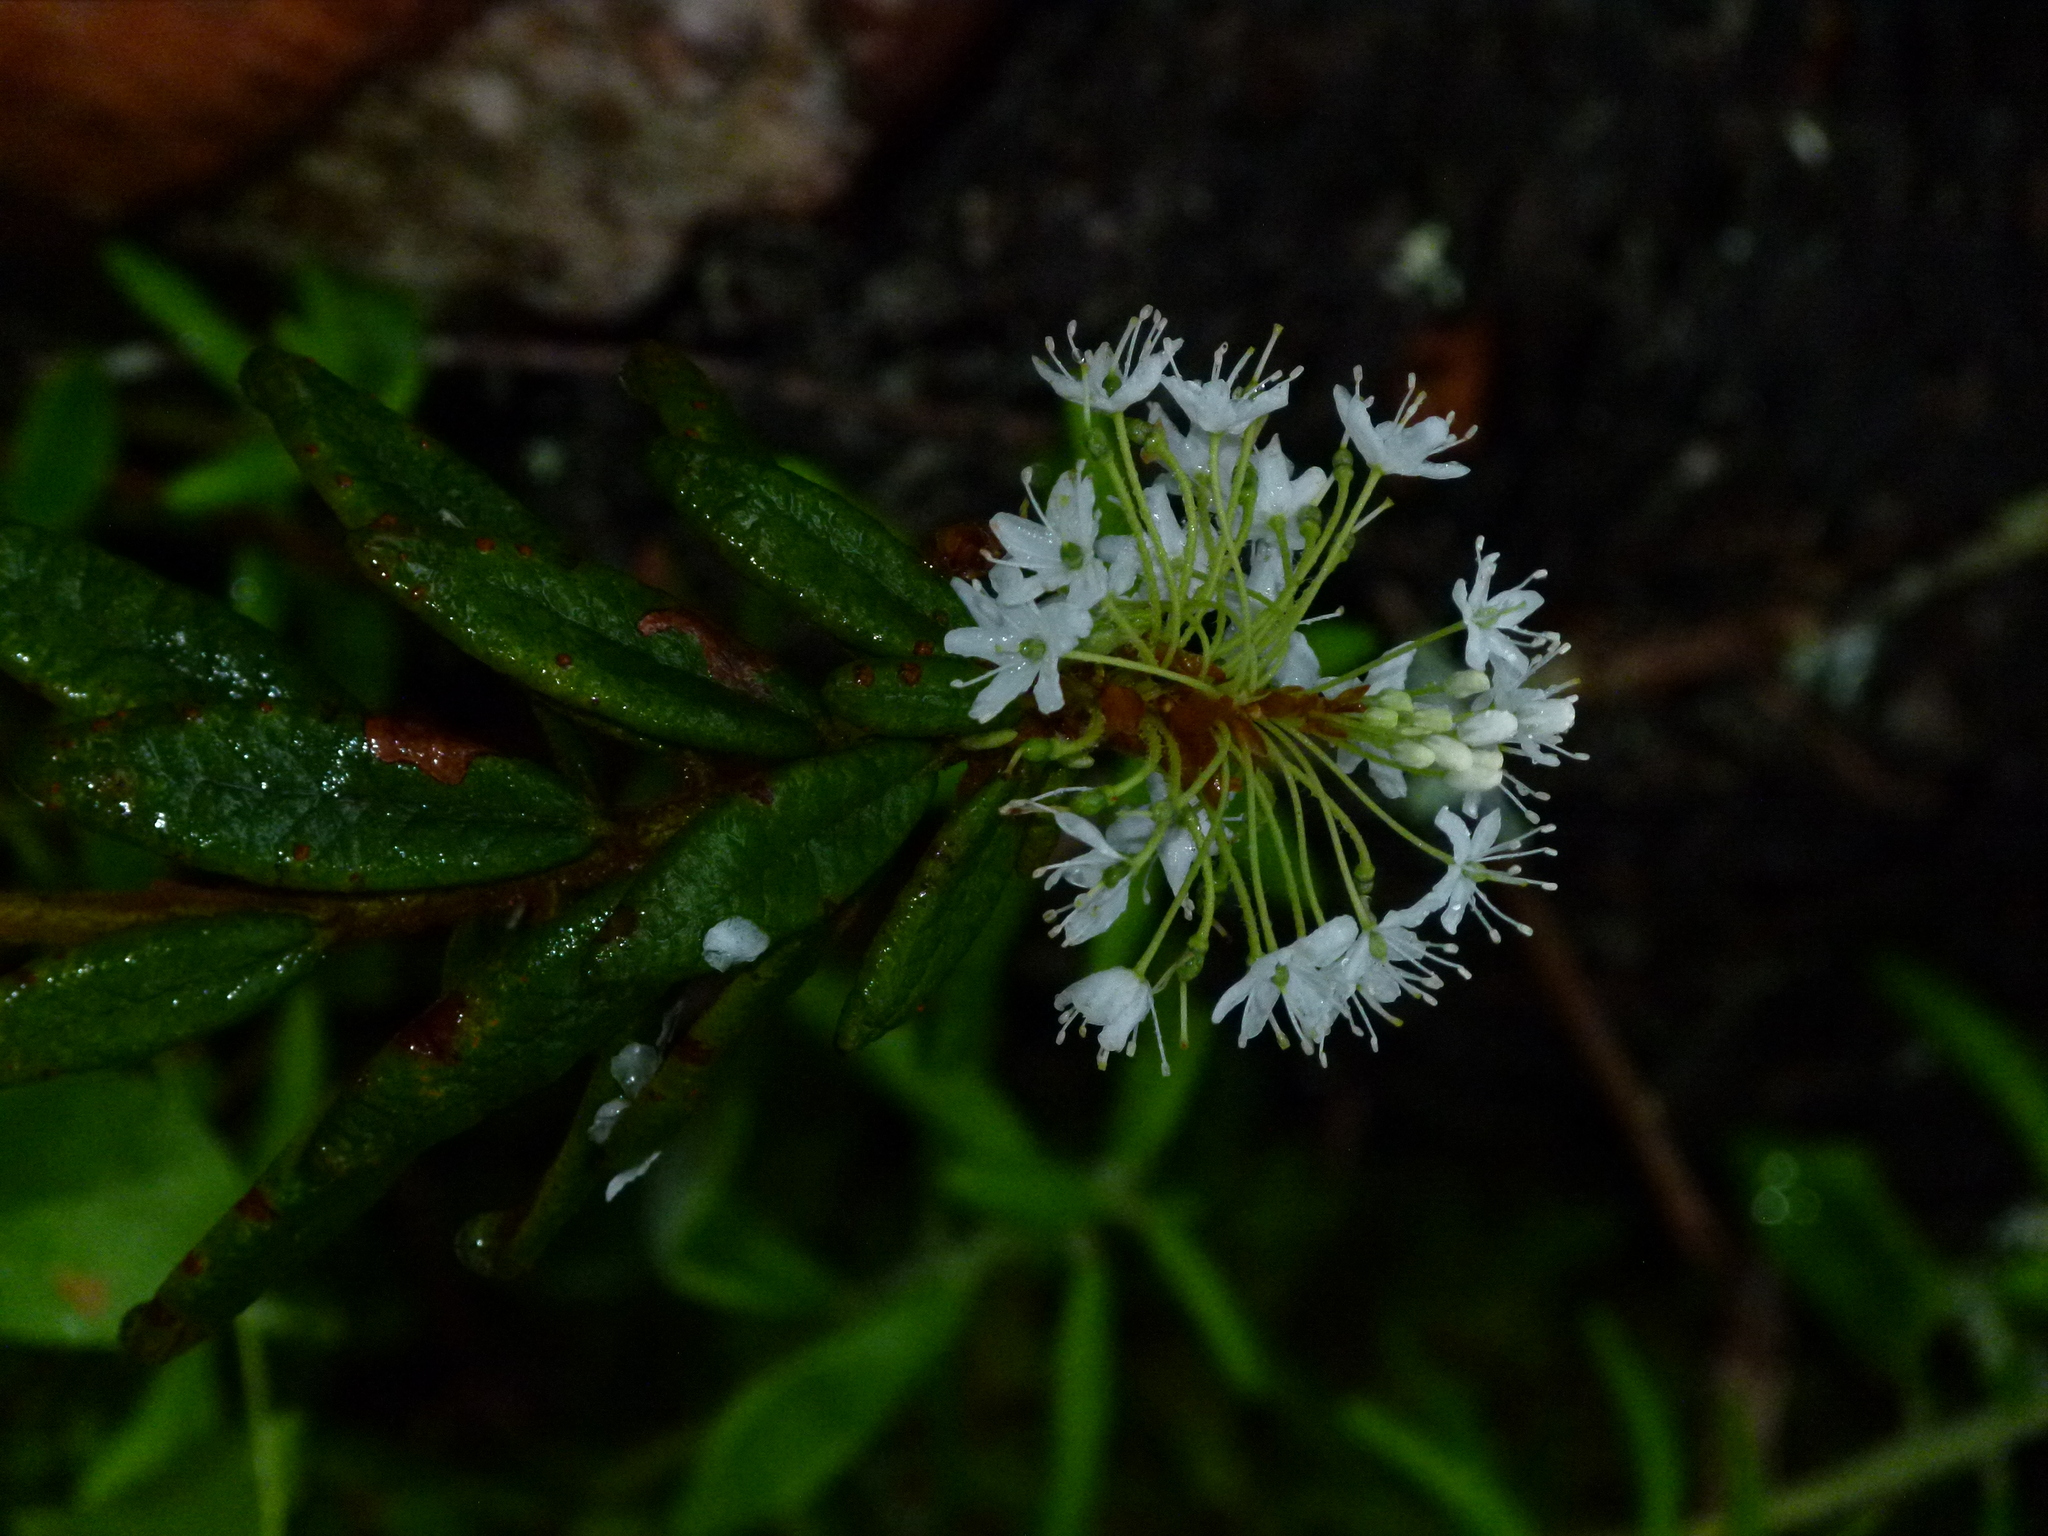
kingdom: Plantae
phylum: Tracheophyta
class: Magnoliopsida
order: Ericales
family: Ericaceae
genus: Rhododendron
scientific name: Rhododendron groenlandicum
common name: Bog labrador tea
